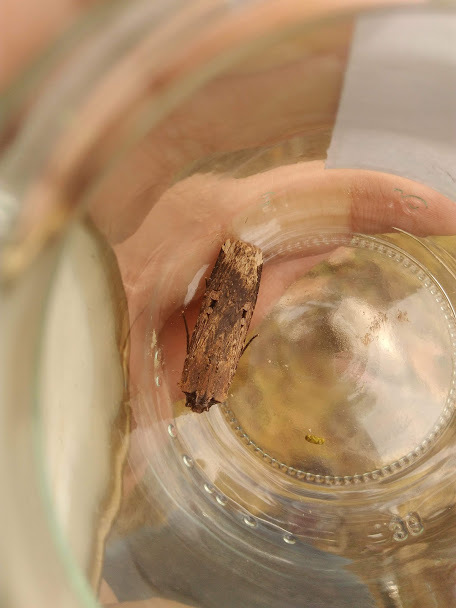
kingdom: Animalia
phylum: Arthropoda
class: Insecta
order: Lepidoptera
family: Noctuidae
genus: Feltia
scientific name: Feltia subterranea
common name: Granulate cutworm
